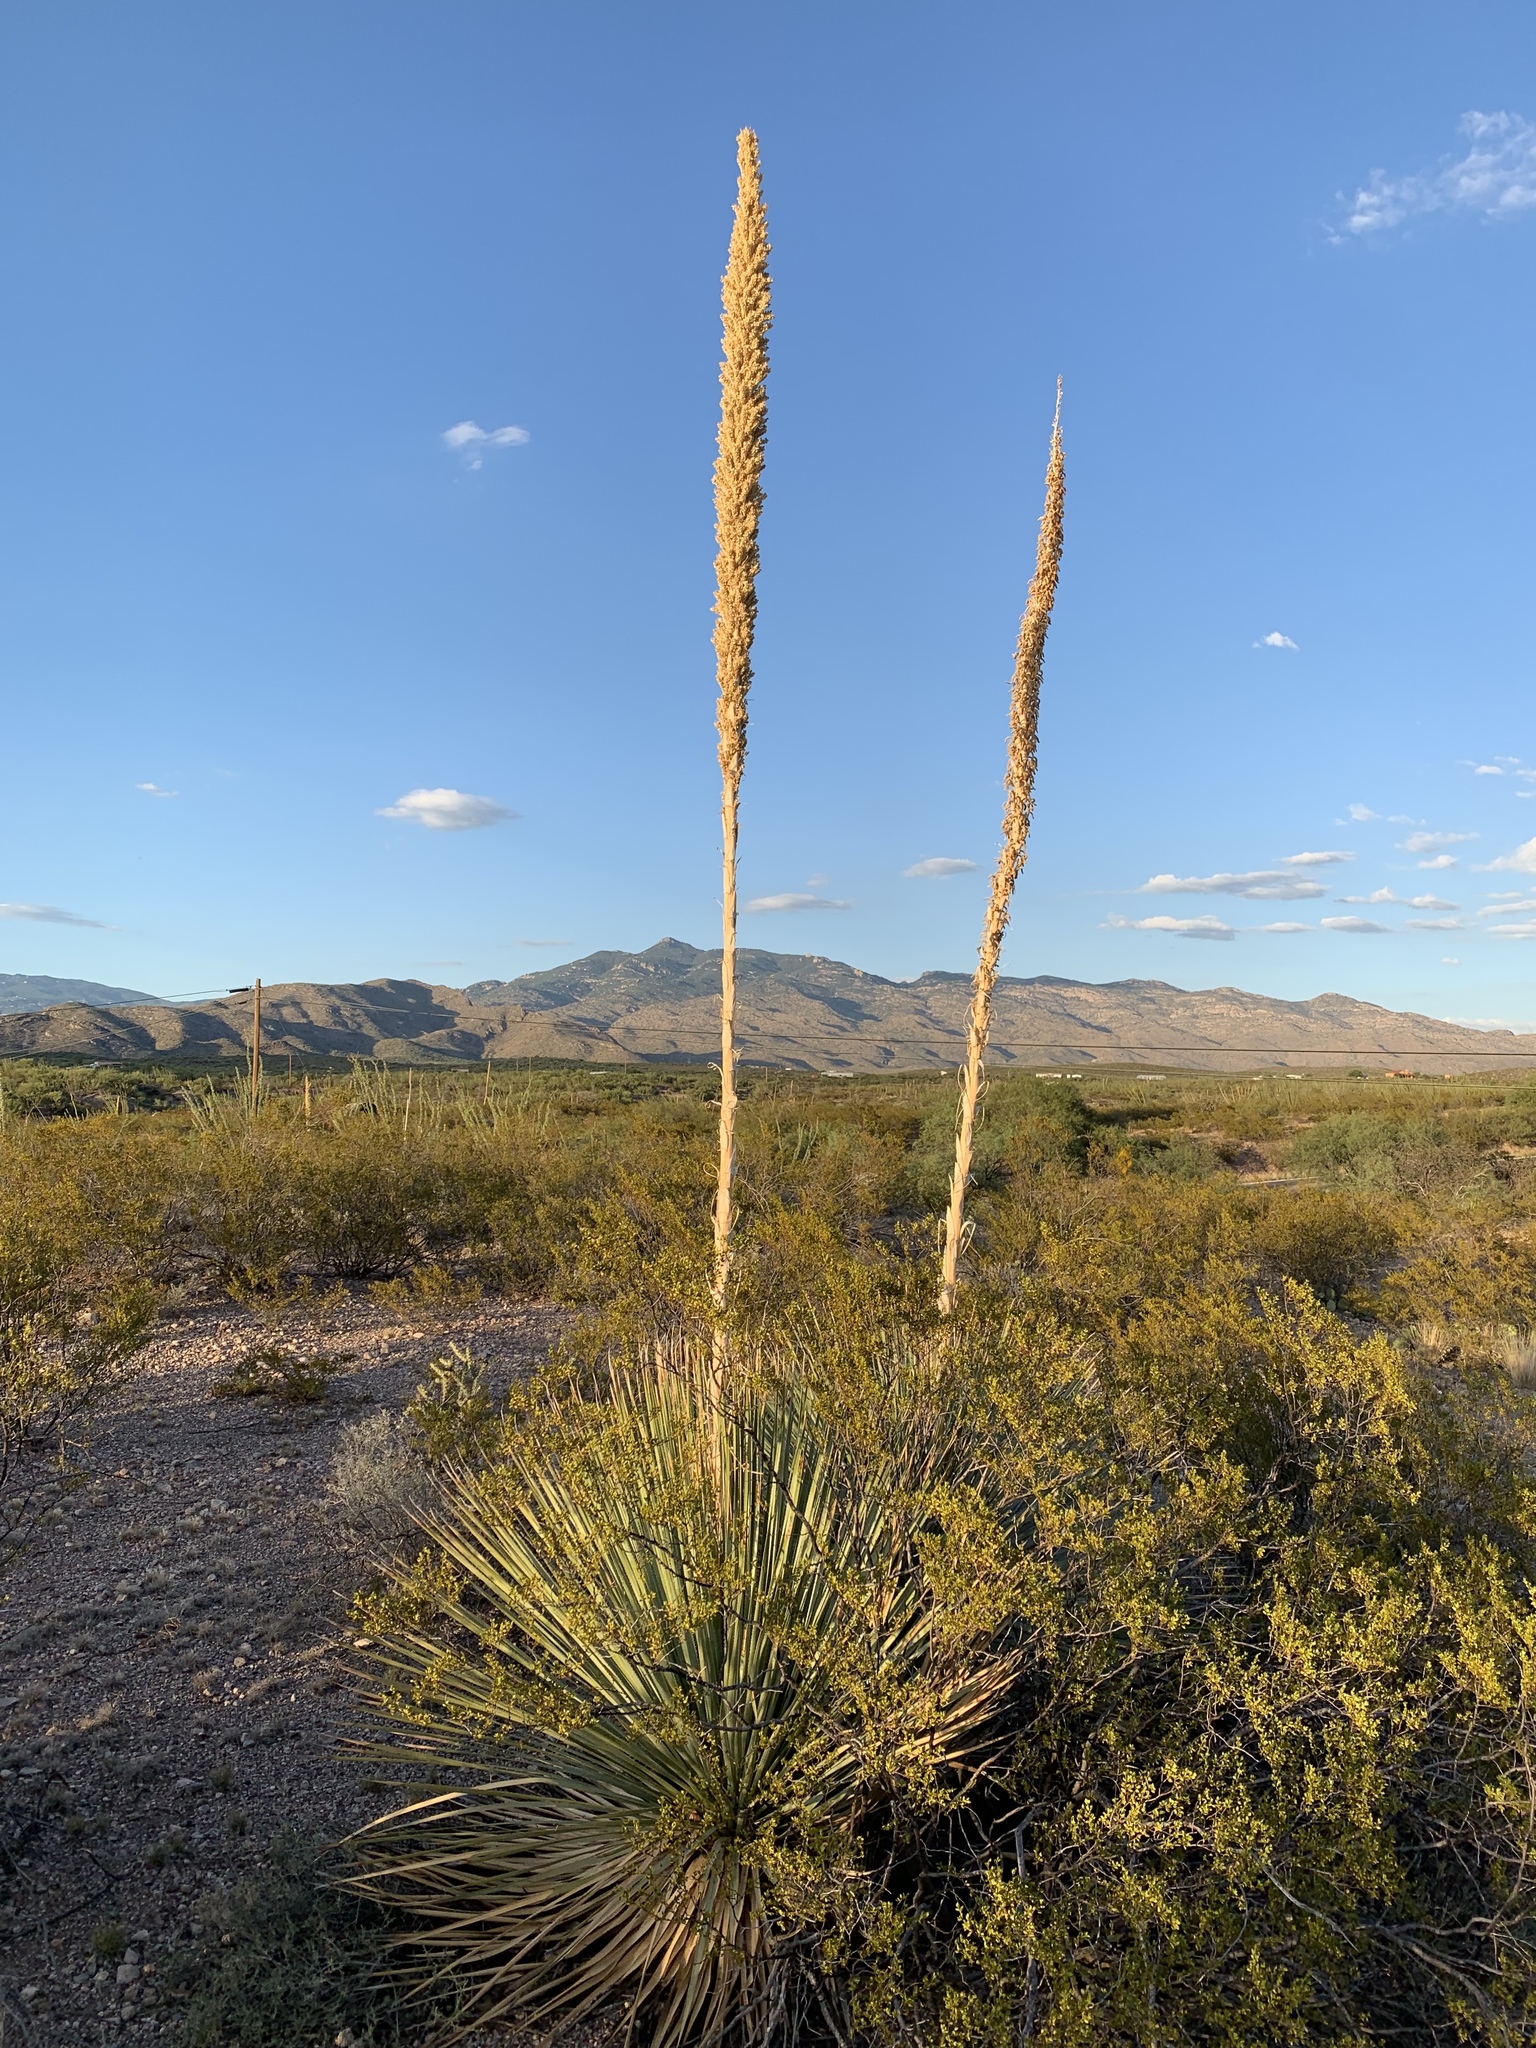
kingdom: Plantae
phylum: Tracheophyta
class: Liliopsida
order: Asparagales
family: Asparagaceae
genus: Dasylirion
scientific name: Dasylirion wheeleri
